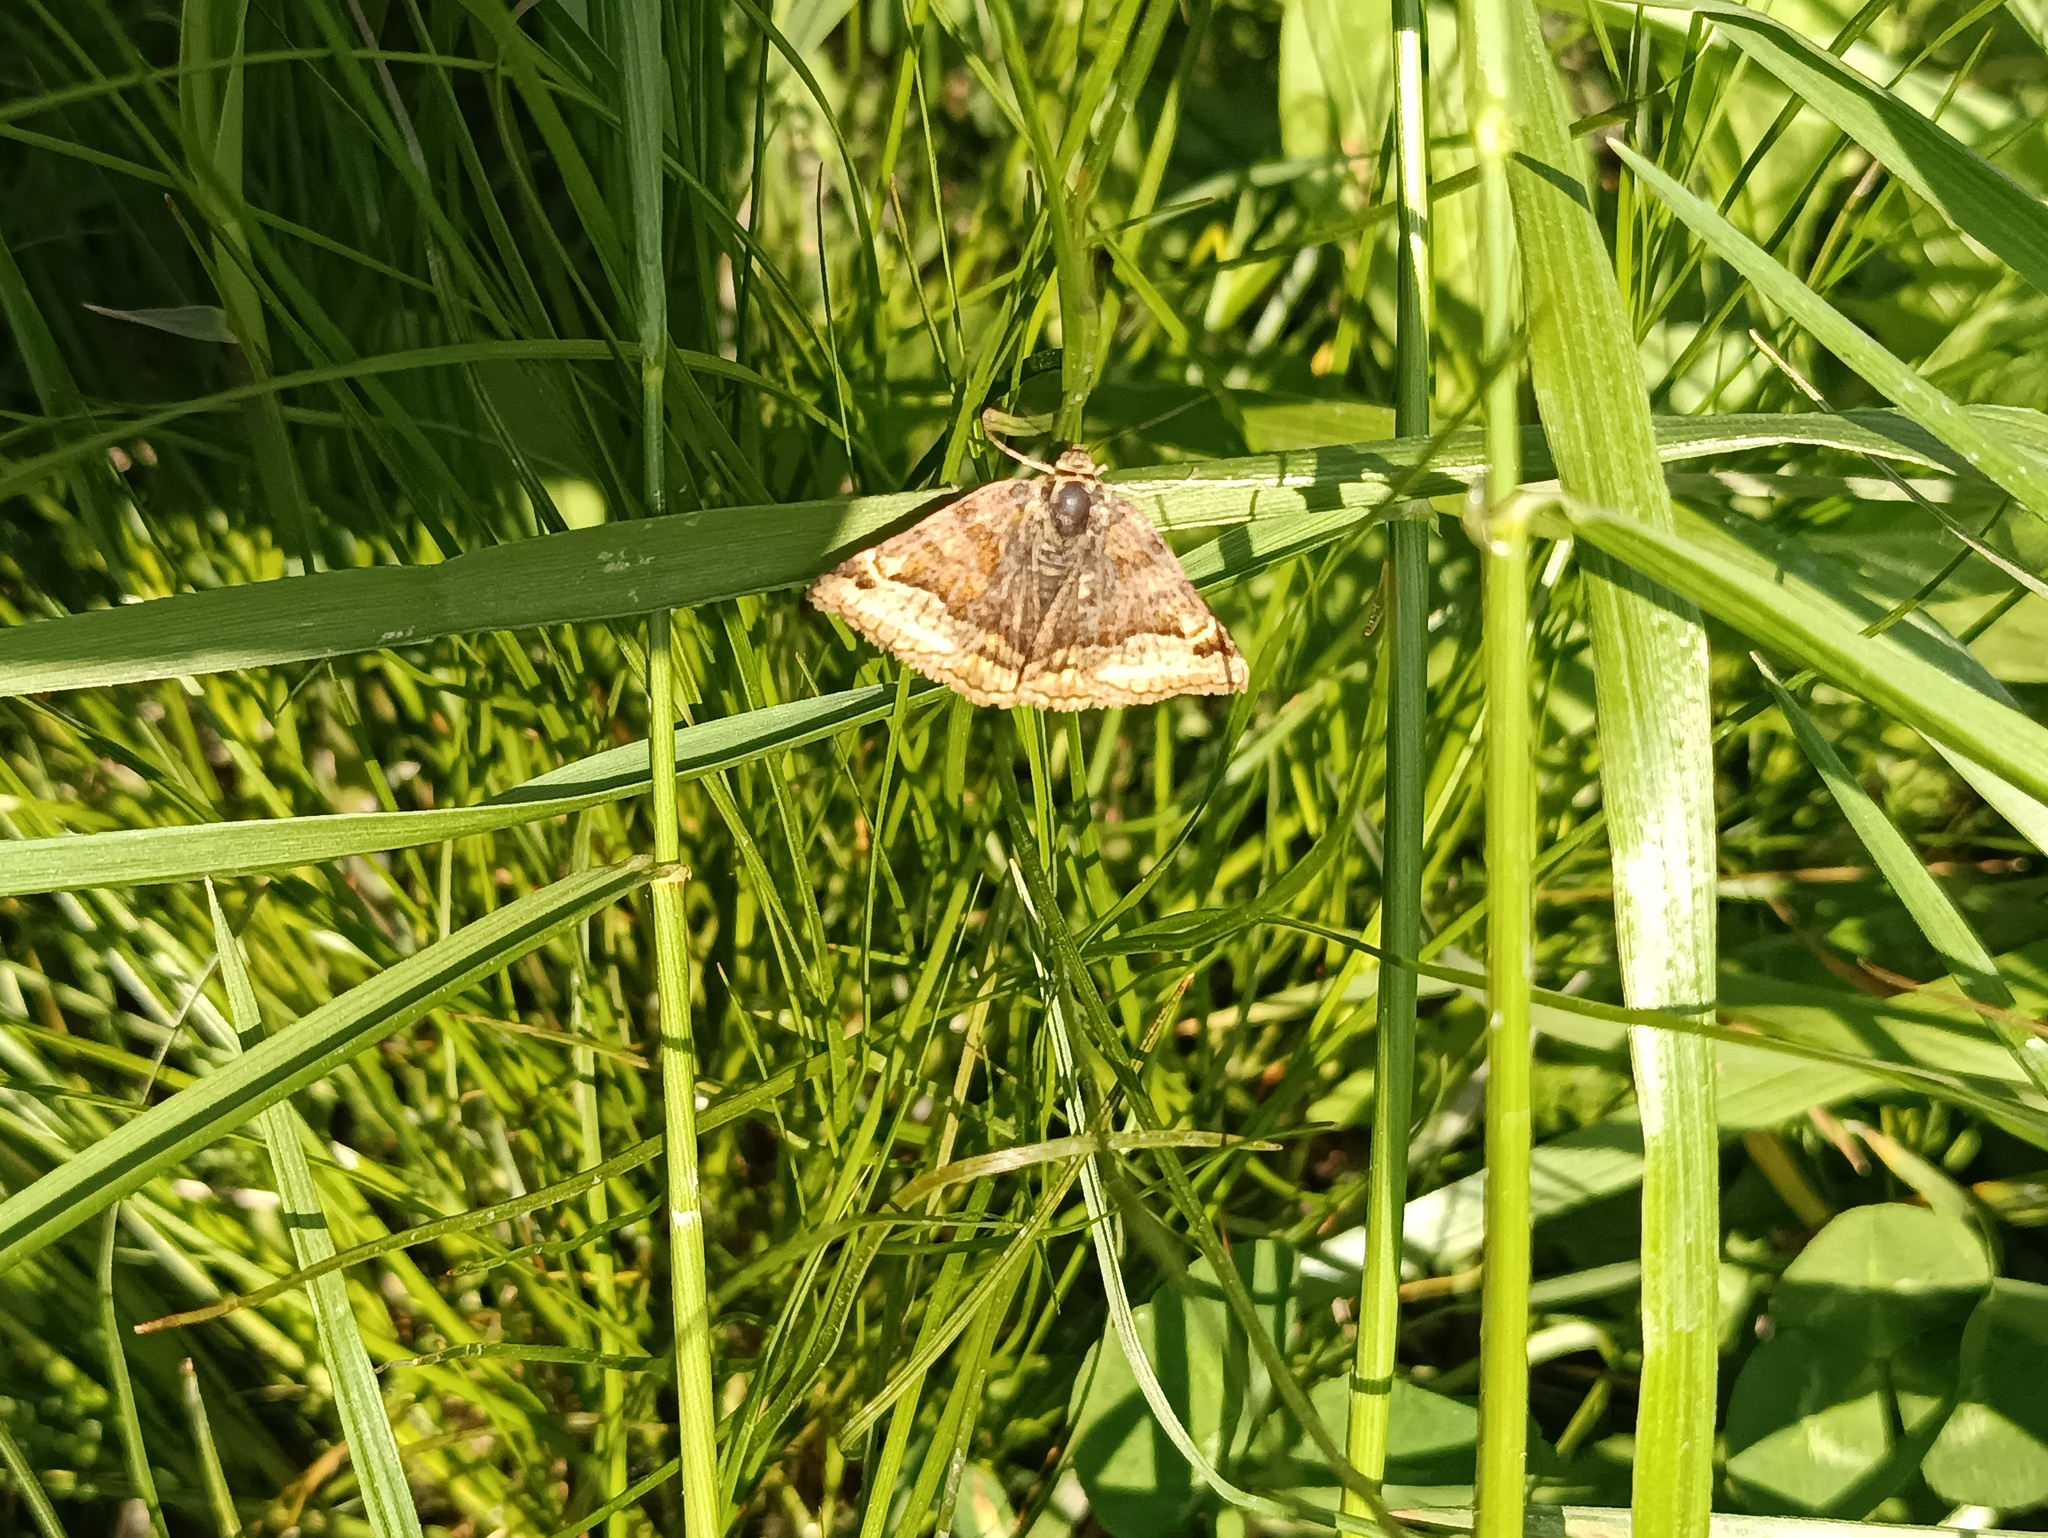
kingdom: Animalia
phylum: Arthropoda
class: Insecta
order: Lepidoptera
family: Erebidae
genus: Euclidia
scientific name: Euclidia glyphica
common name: Burnet companion
